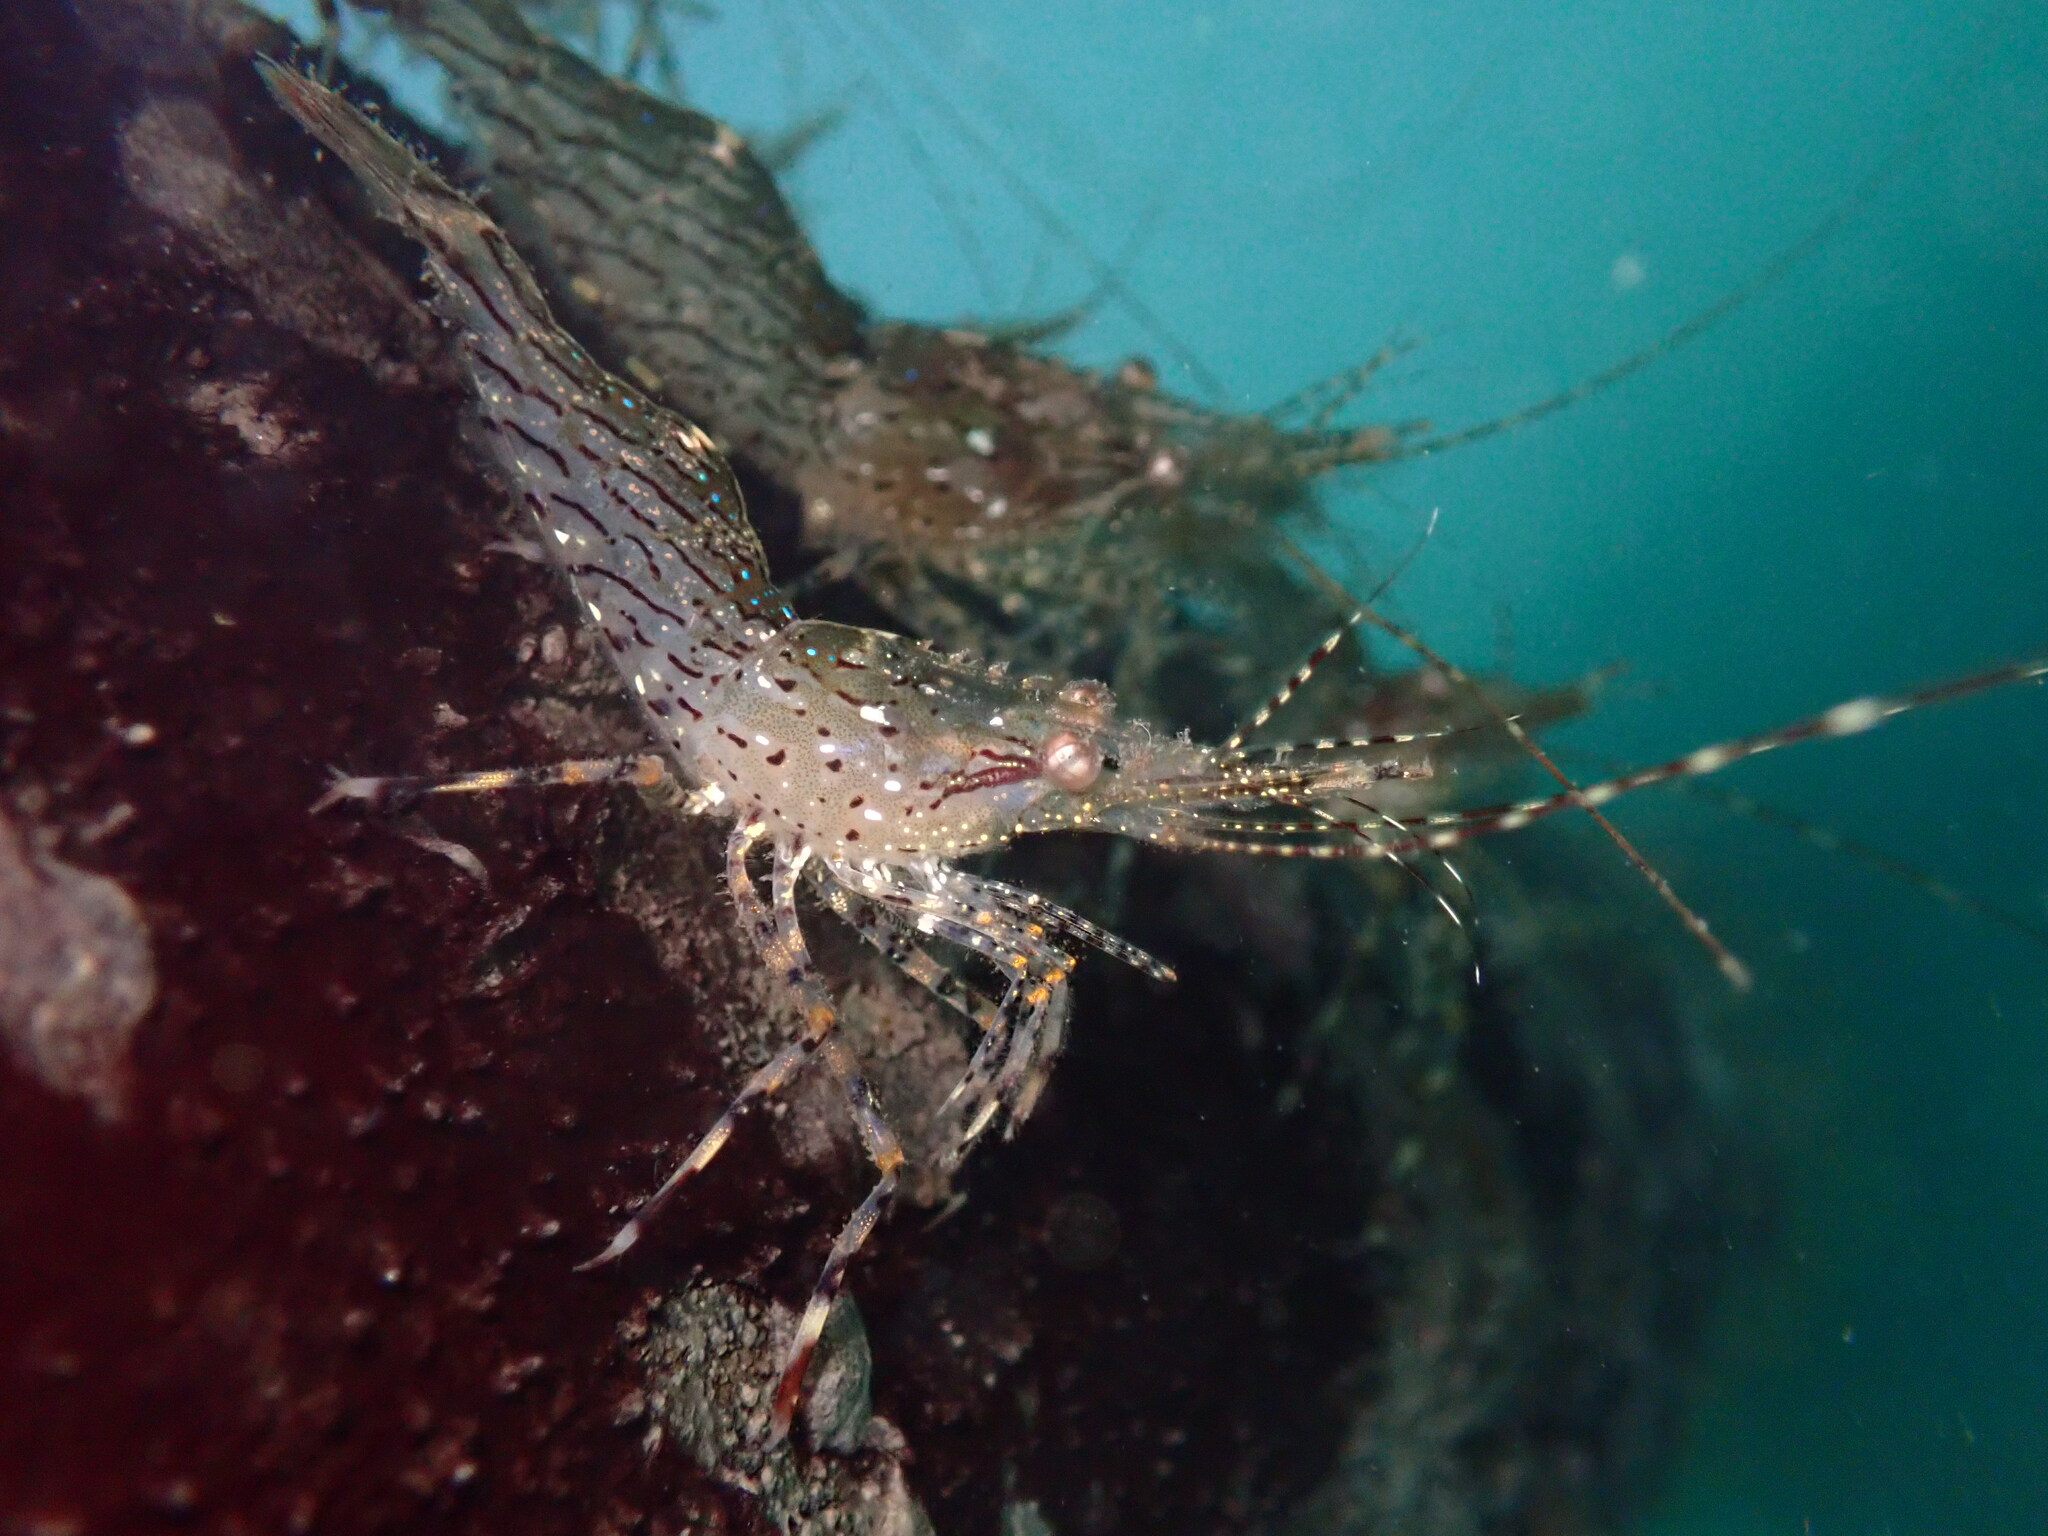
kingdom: Animalia
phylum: Arthropoda
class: Malacostraca
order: Decapoda
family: Pandalidae
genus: Pandalus
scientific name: Pandalus danae
